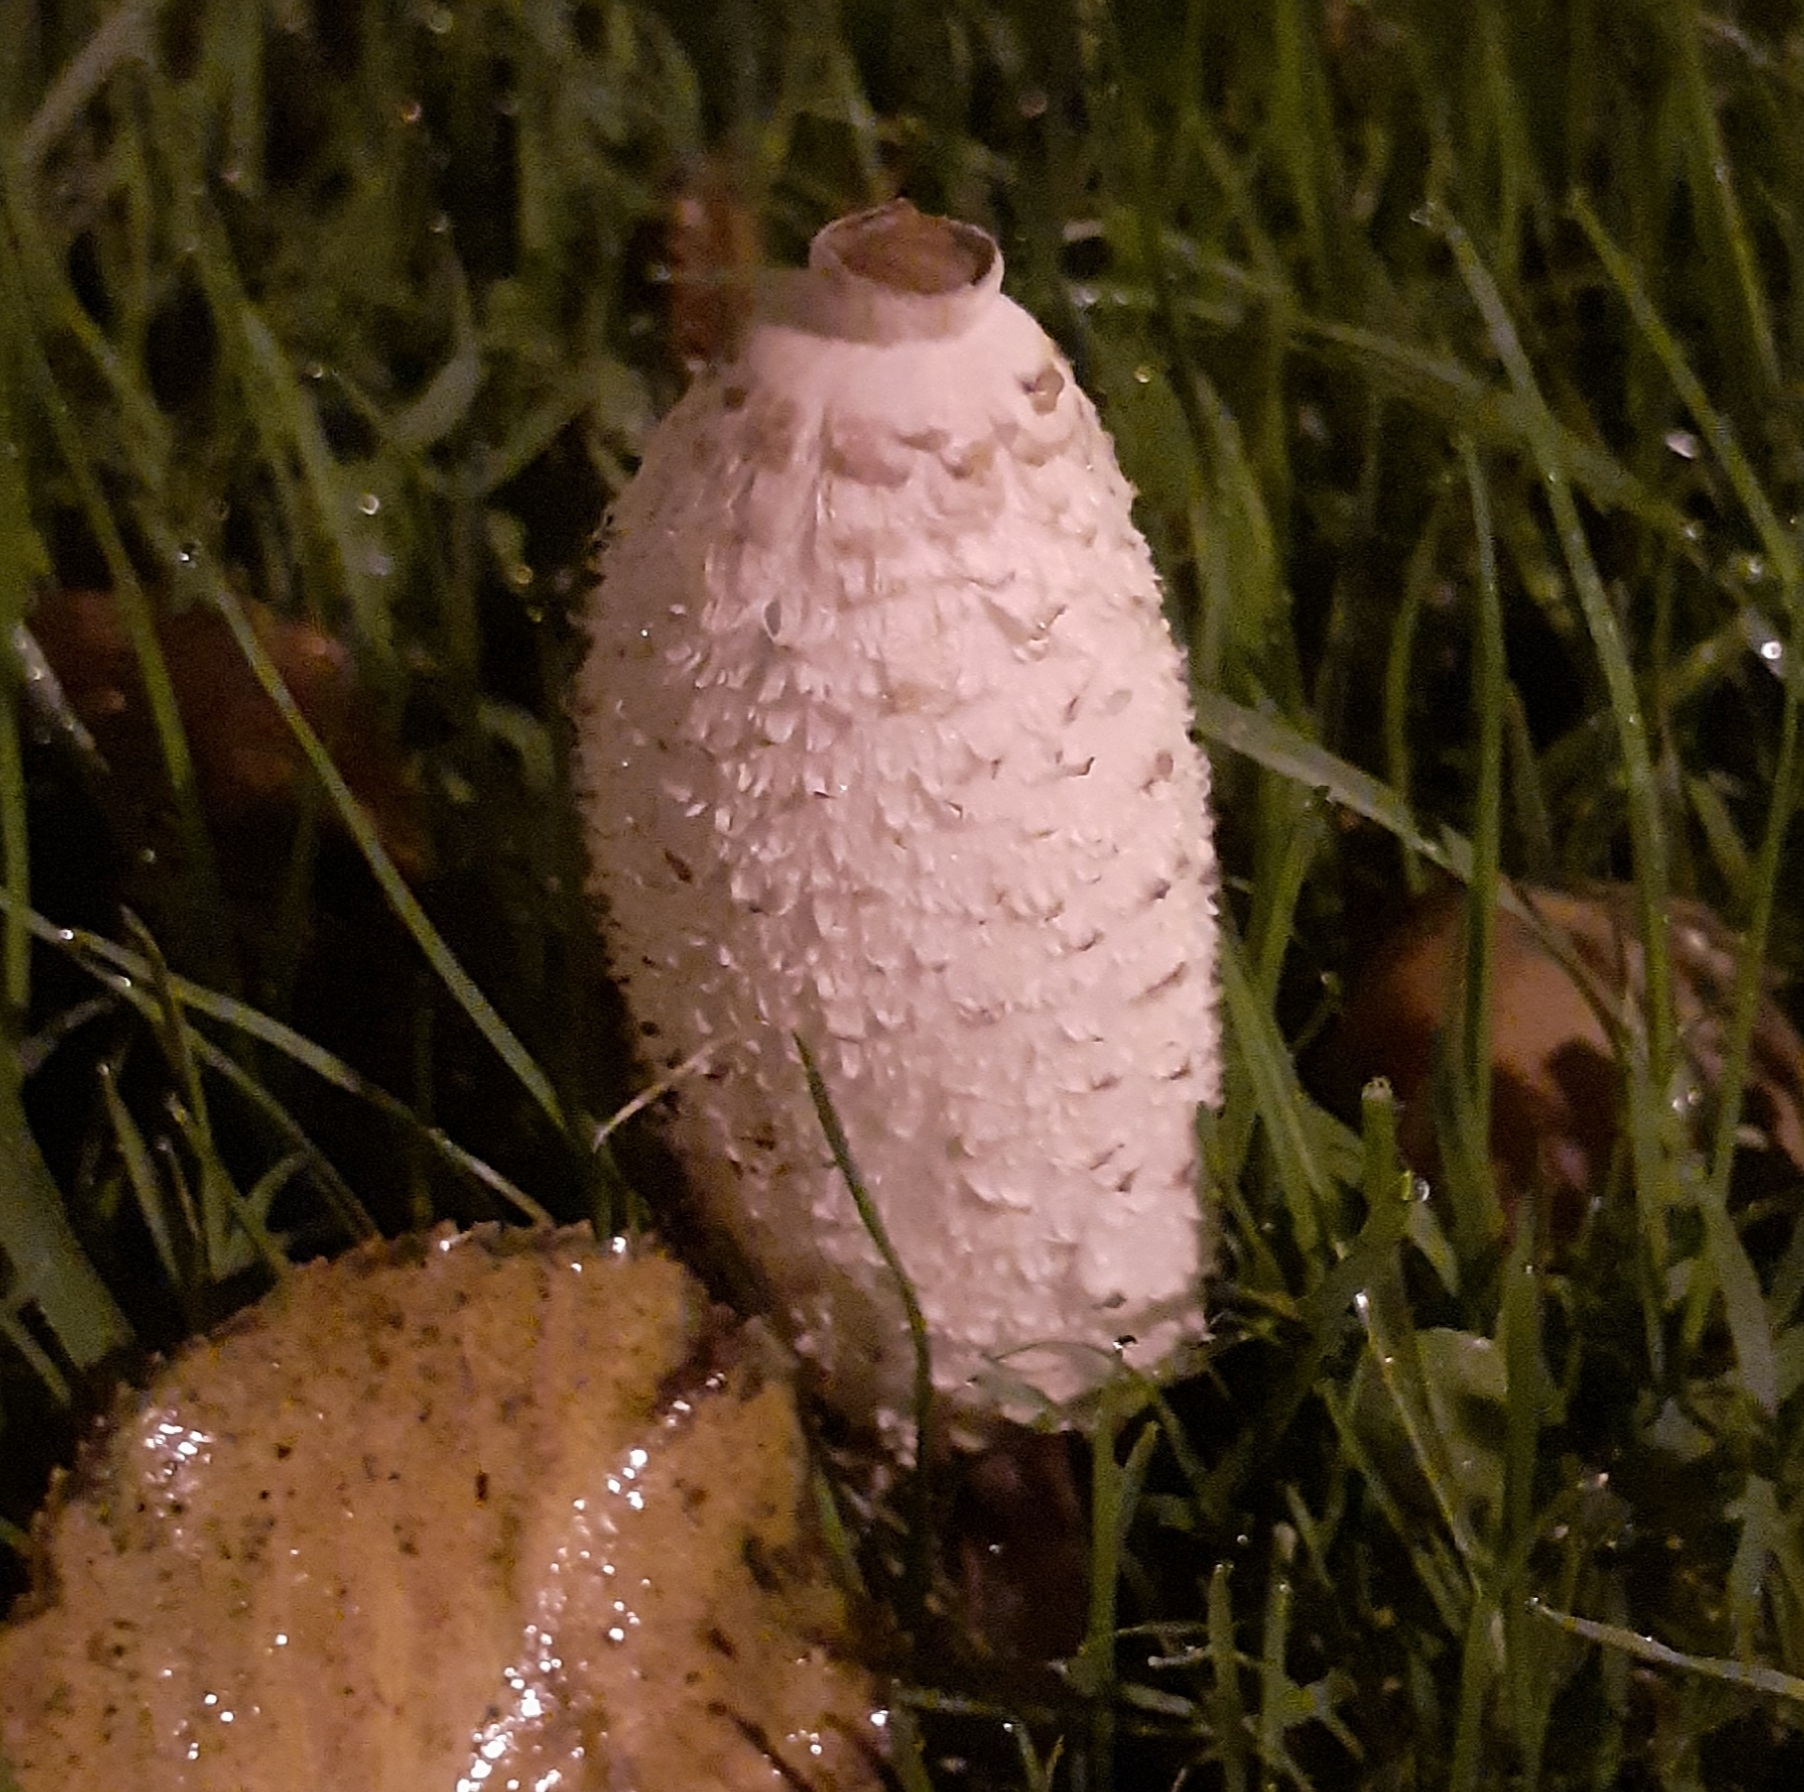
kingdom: Fungi
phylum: Basidiomycota
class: Agaricomycetes
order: Agaricales
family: Agaricaceae
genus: Coprinus
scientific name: Coprinus comatus
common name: Lawyer's wig
